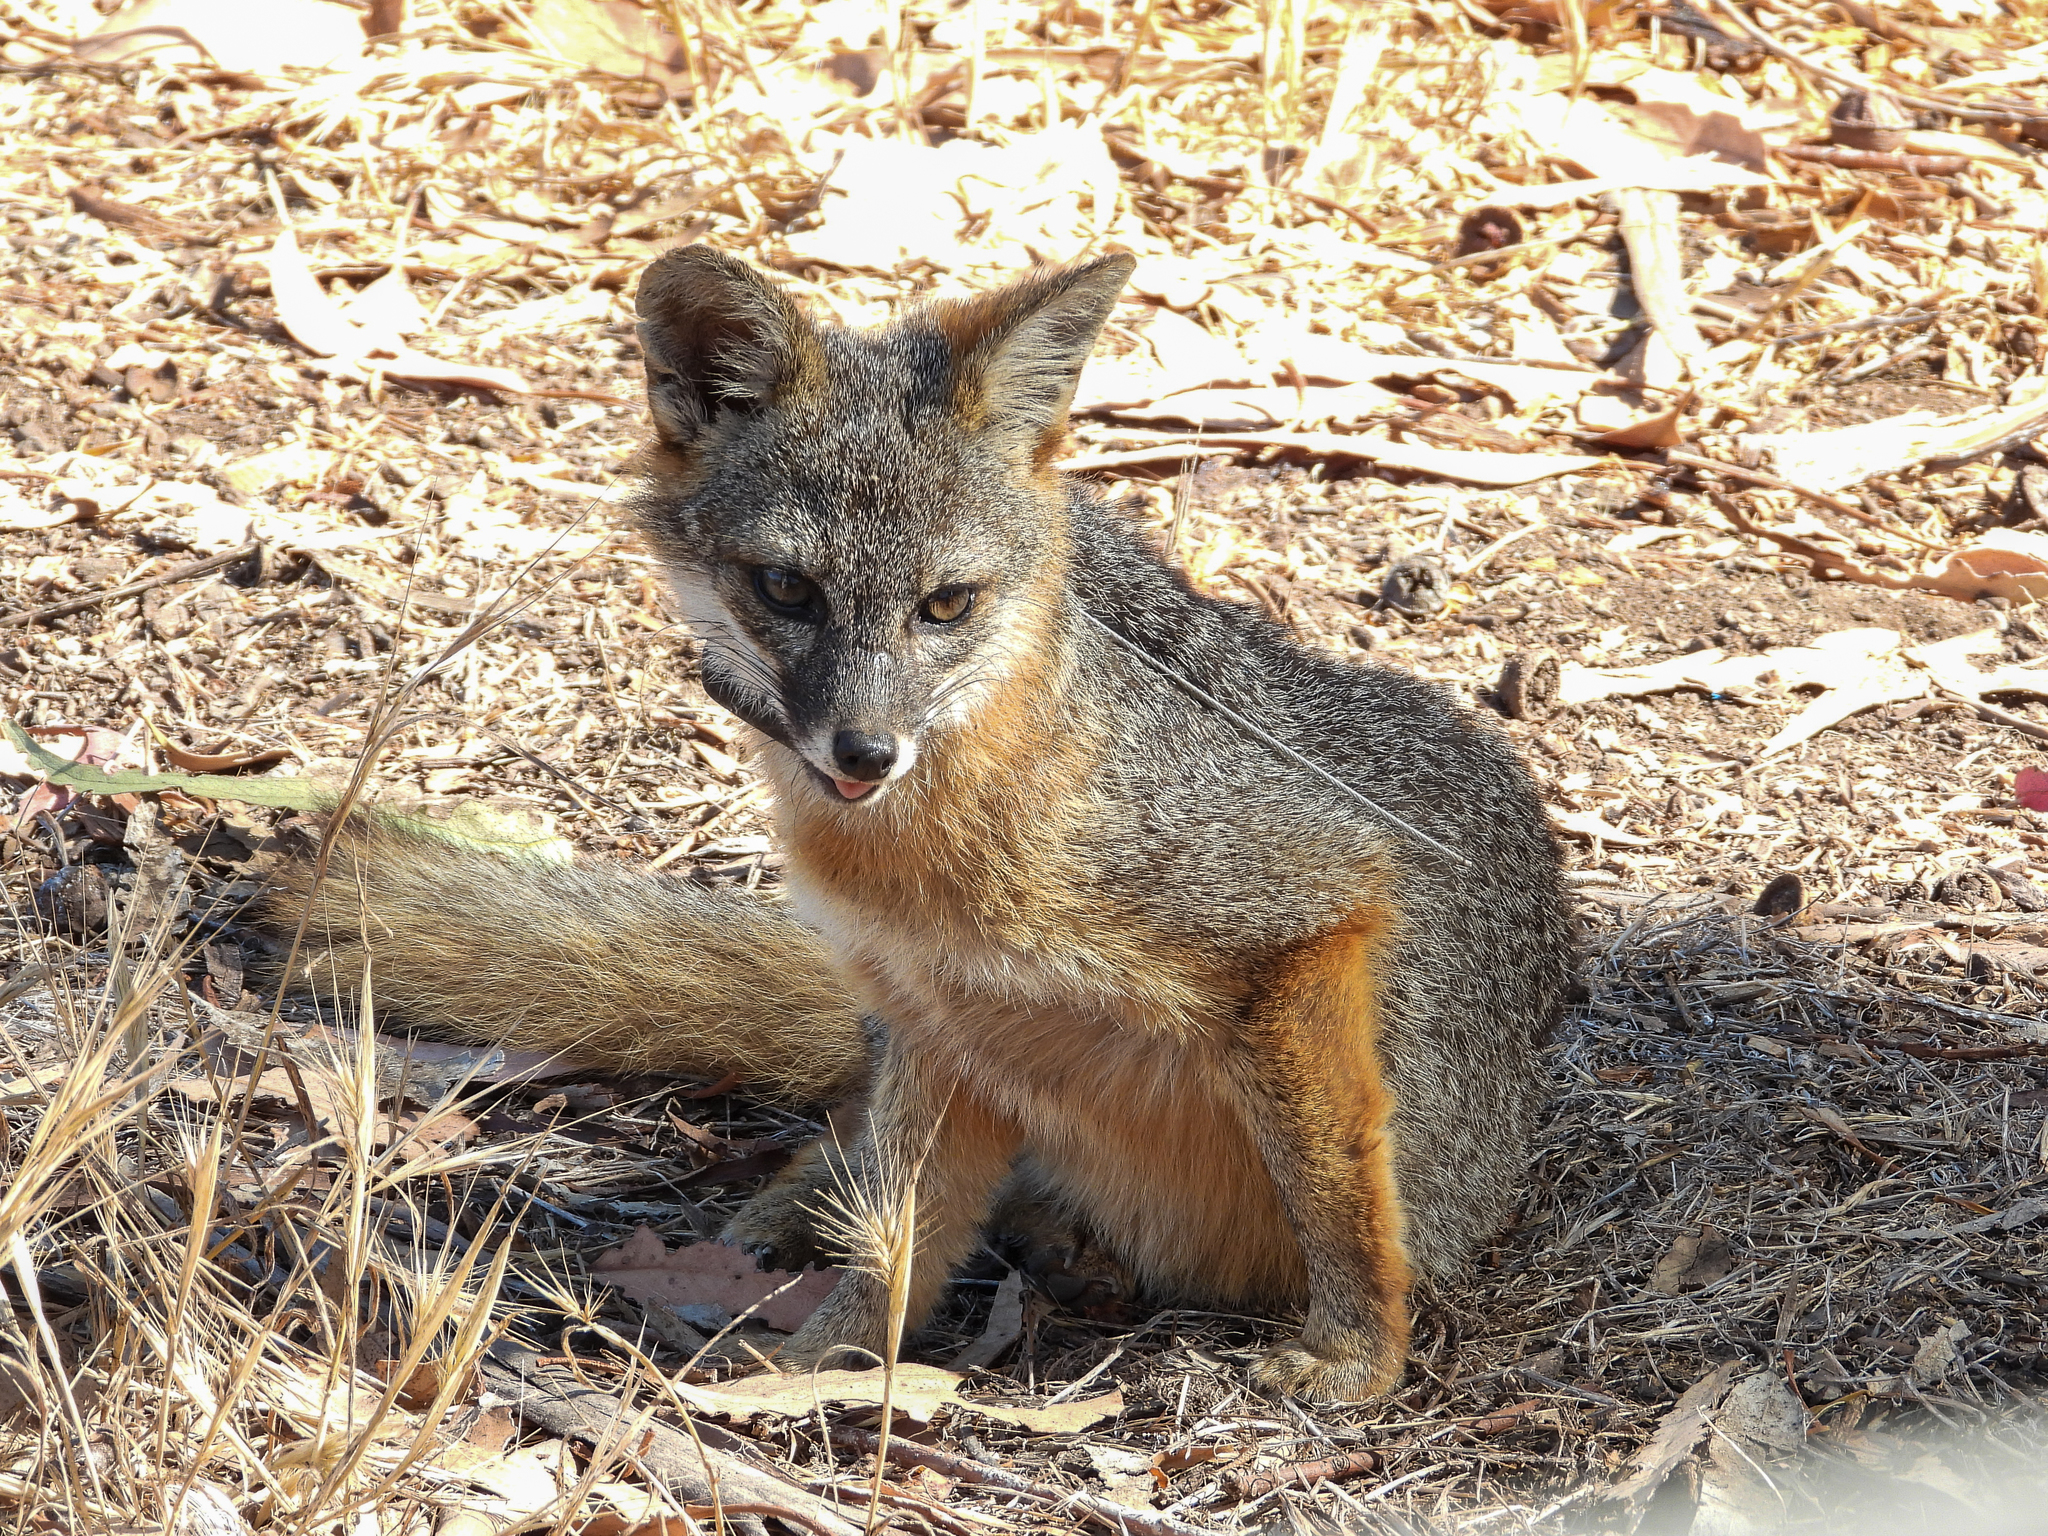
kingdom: Animalia
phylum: Chordata
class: Mammalia
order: Carnivora
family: Canidae
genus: Urocyon
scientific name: Urocyon littoralis
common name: Island gray fox
